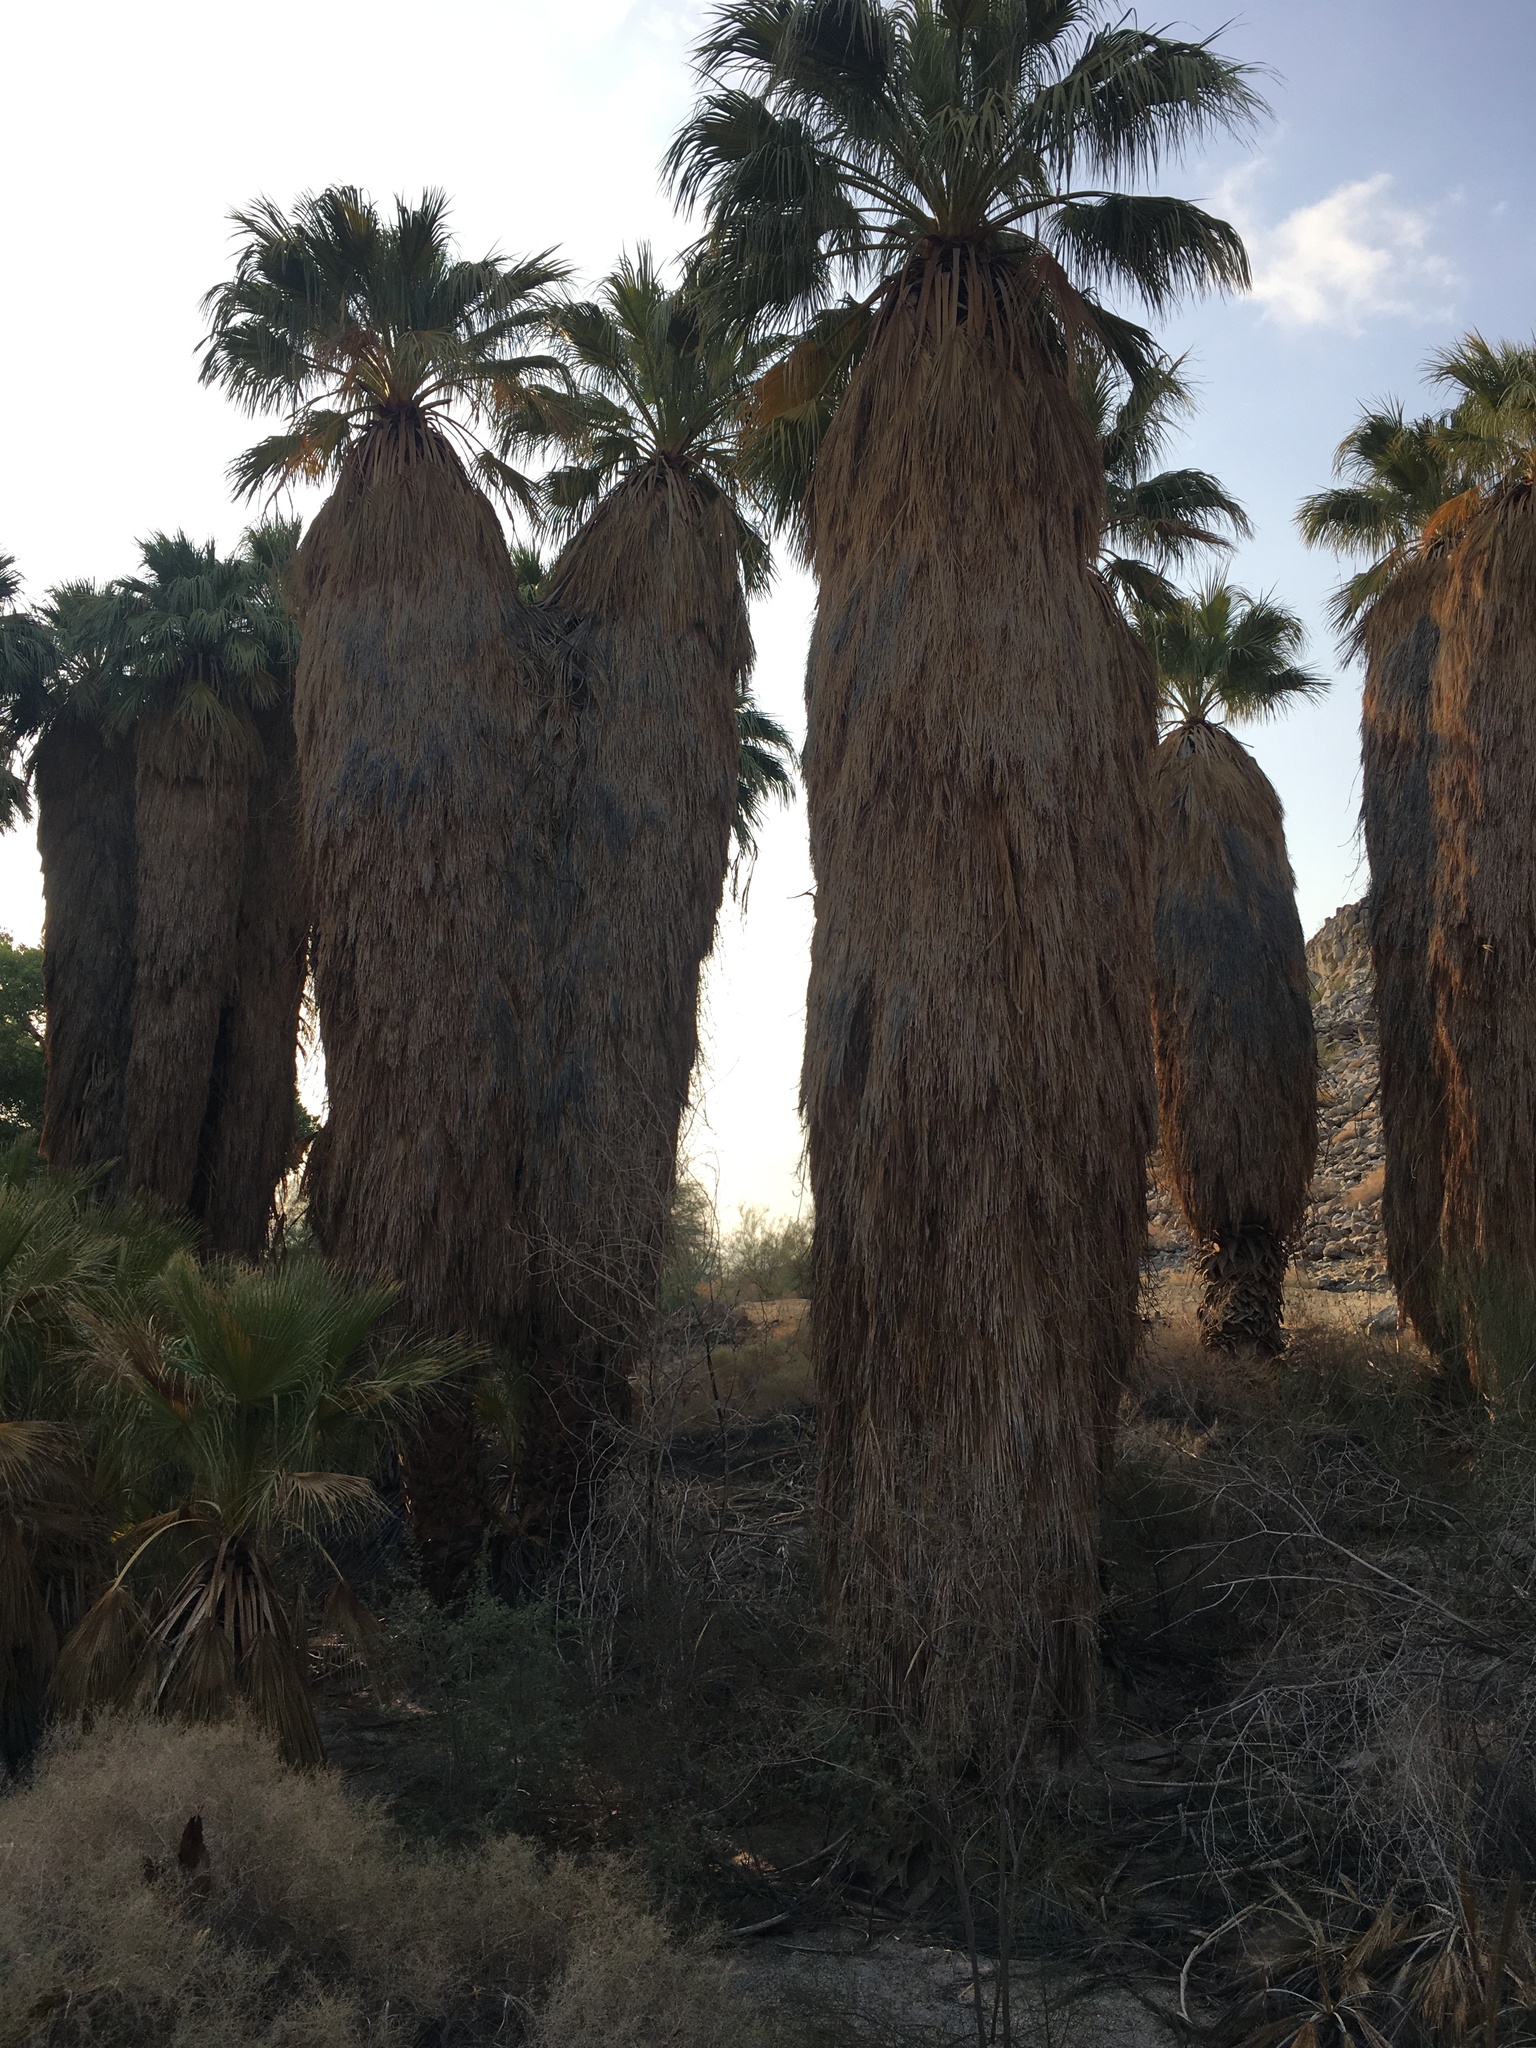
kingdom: Plantae
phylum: Tracheophyta
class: Liliopsida
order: Arecales
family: Arecaceae
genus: Washingtonia
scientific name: Washingtonia filifera
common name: California fan palm
